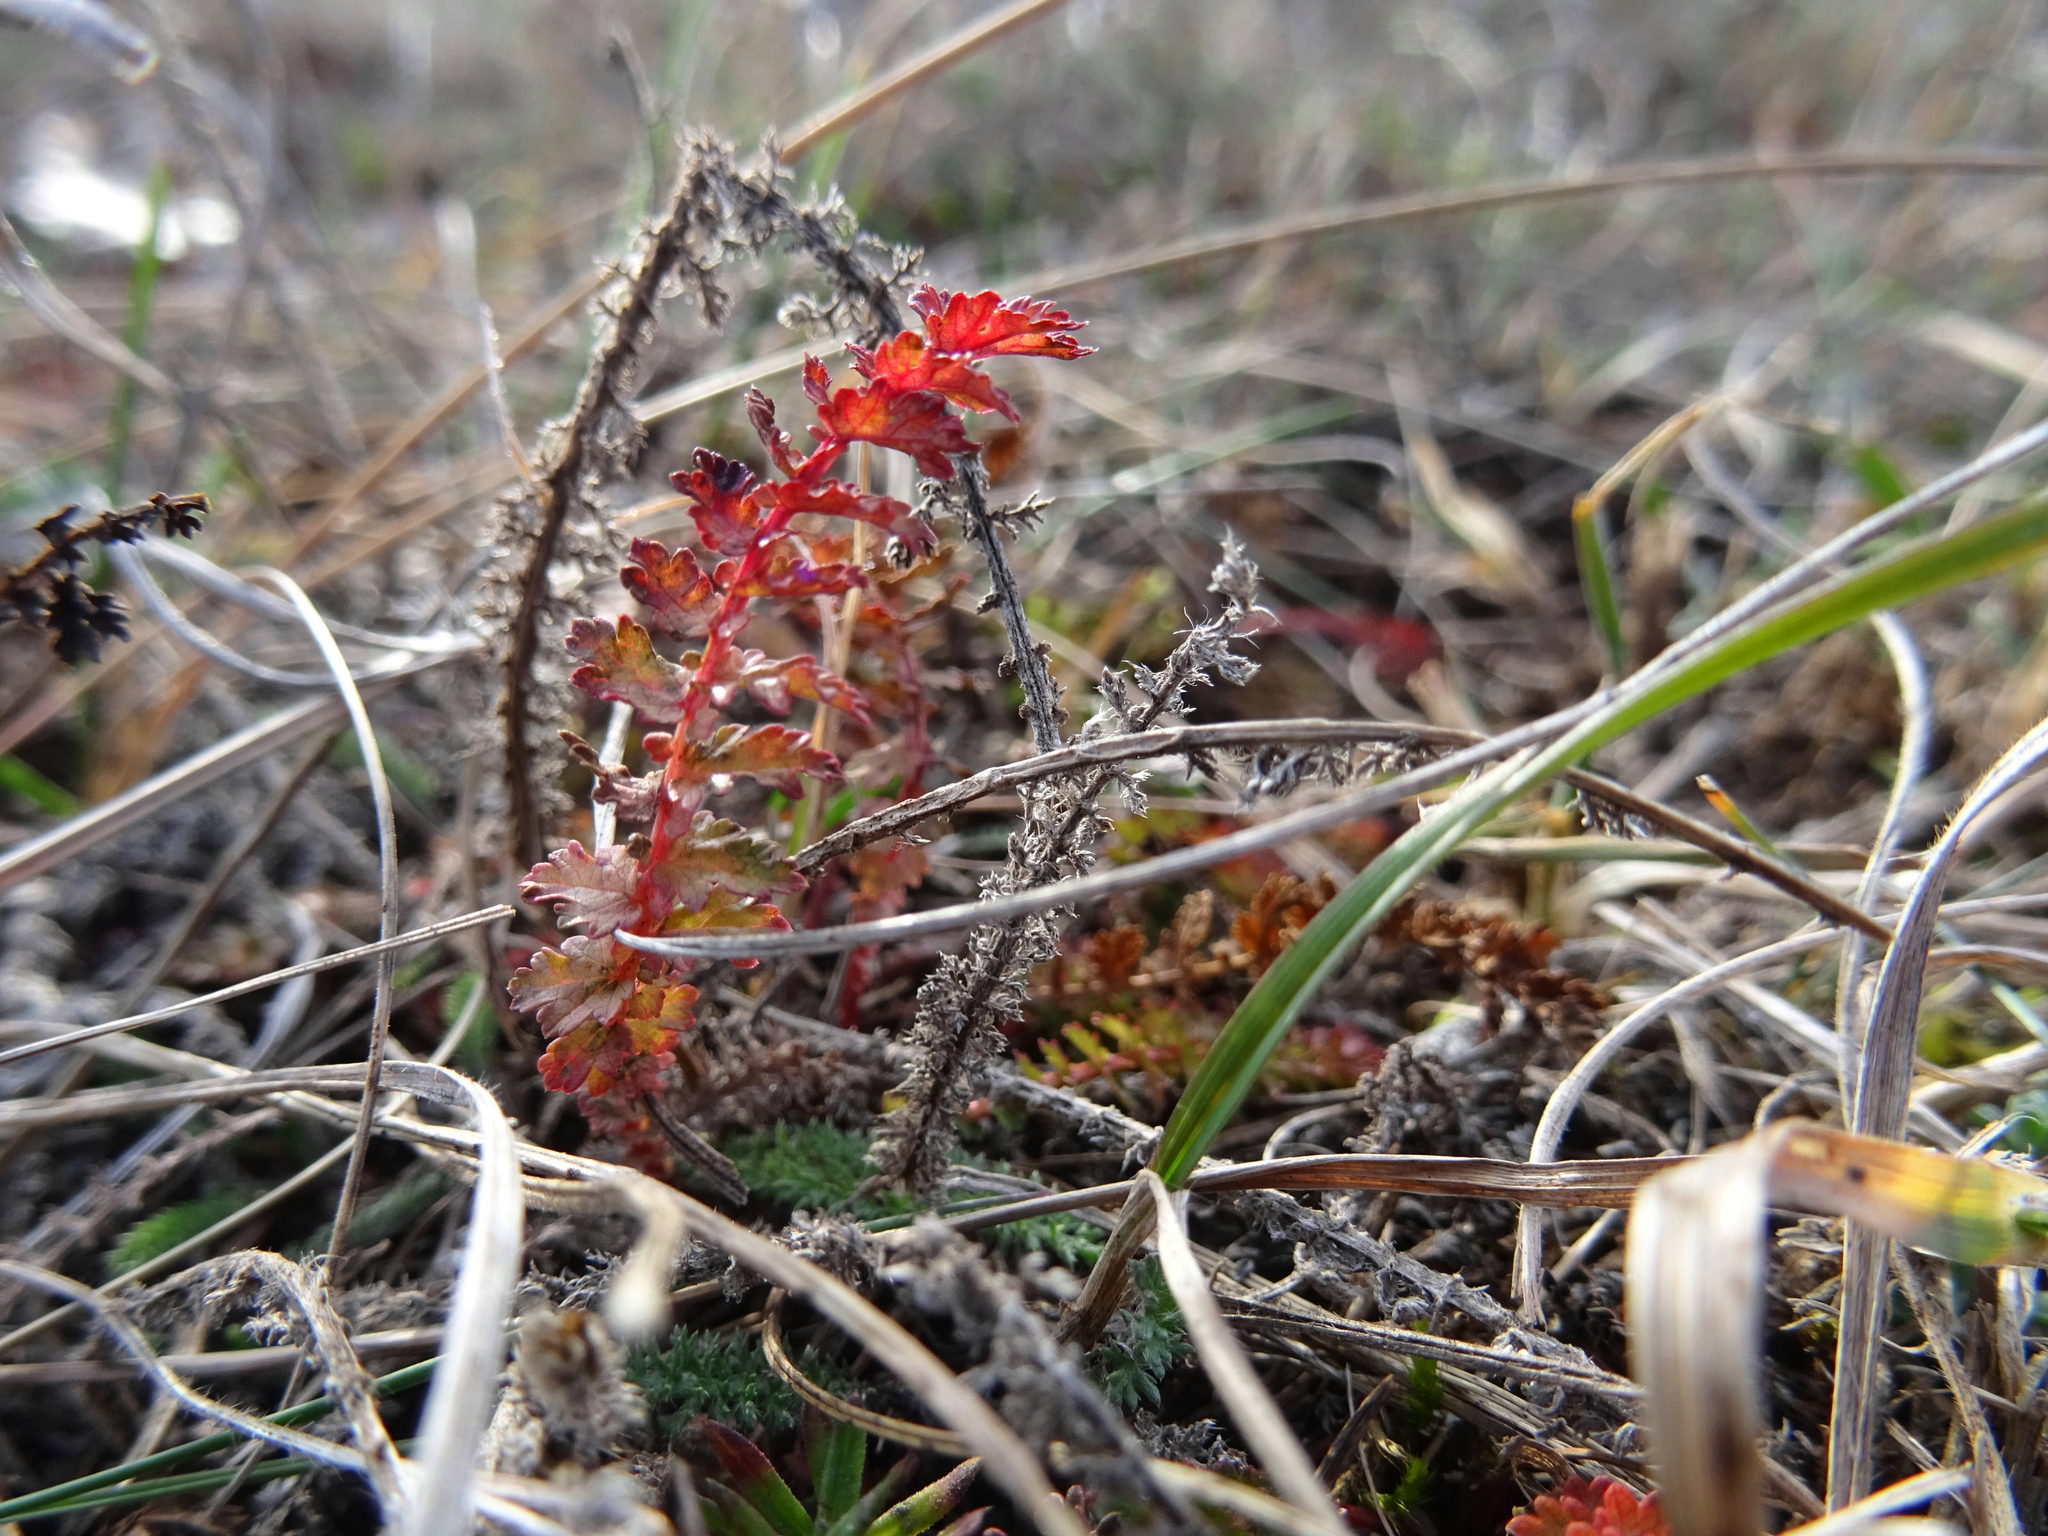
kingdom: Plantae
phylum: Tracheophyta
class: Magnoliopsida
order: Rosales
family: Rosaceae
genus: Filipendula
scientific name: Filipendula vulgaris
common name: Dropwort
